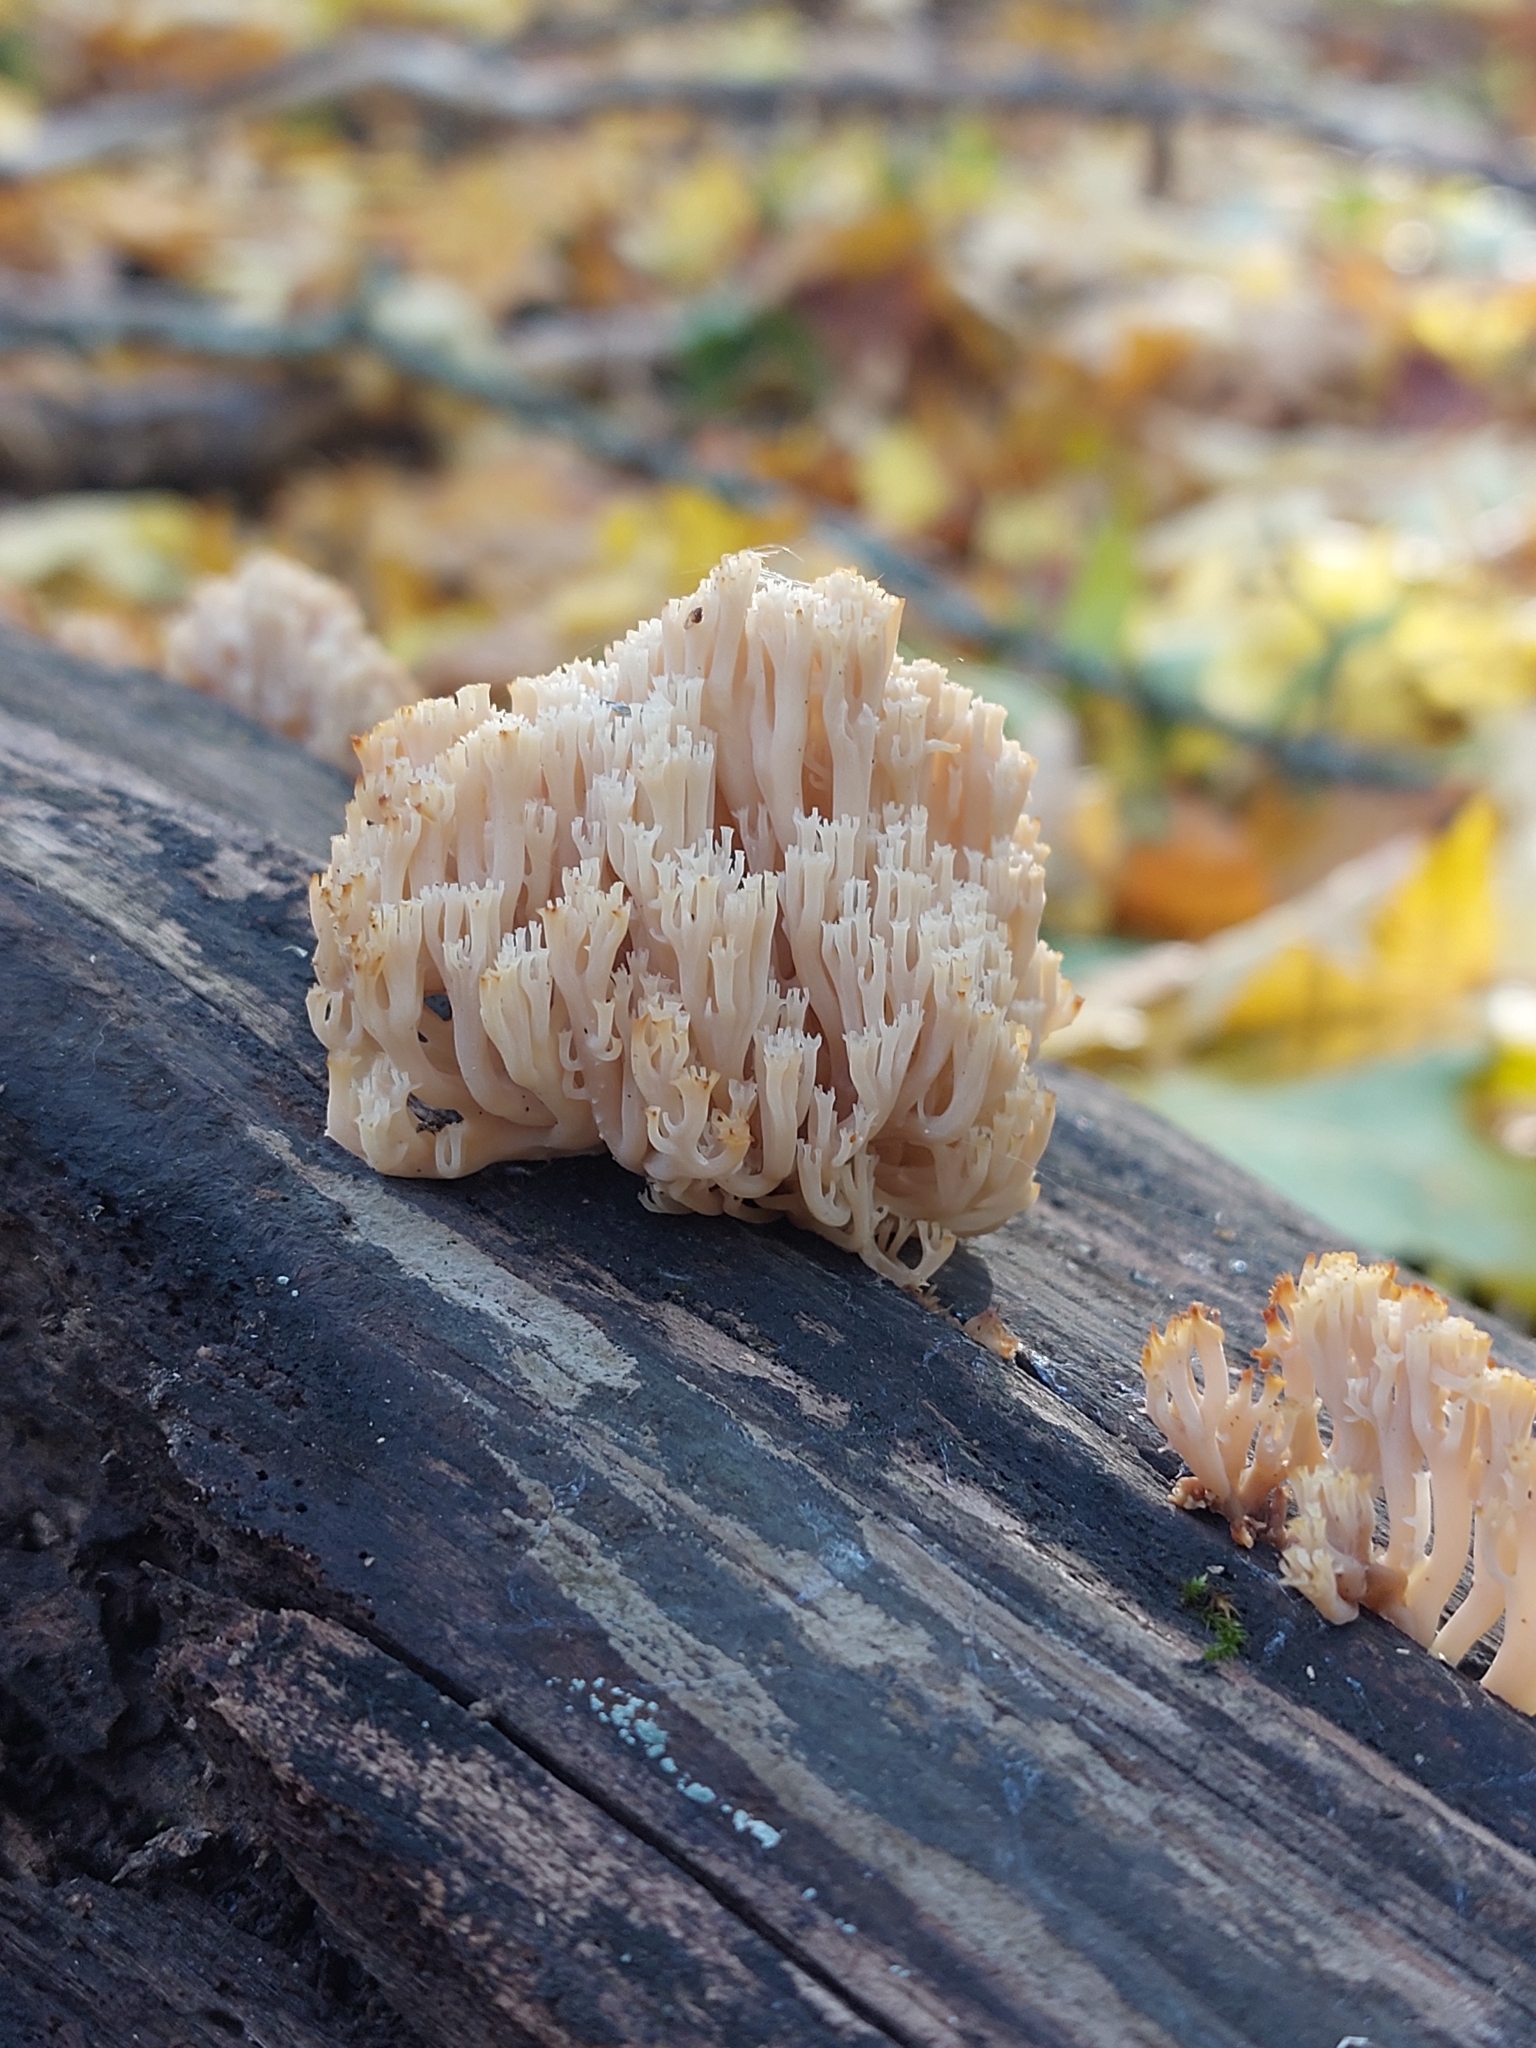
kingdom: Fungi
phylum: Basidiomycota
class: Agaricomycetes
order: Russulales
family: Auriscalpiaceae
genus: Artomyces
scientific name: Artomyces pyxidatus
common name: Crown-tipped coral fungus
